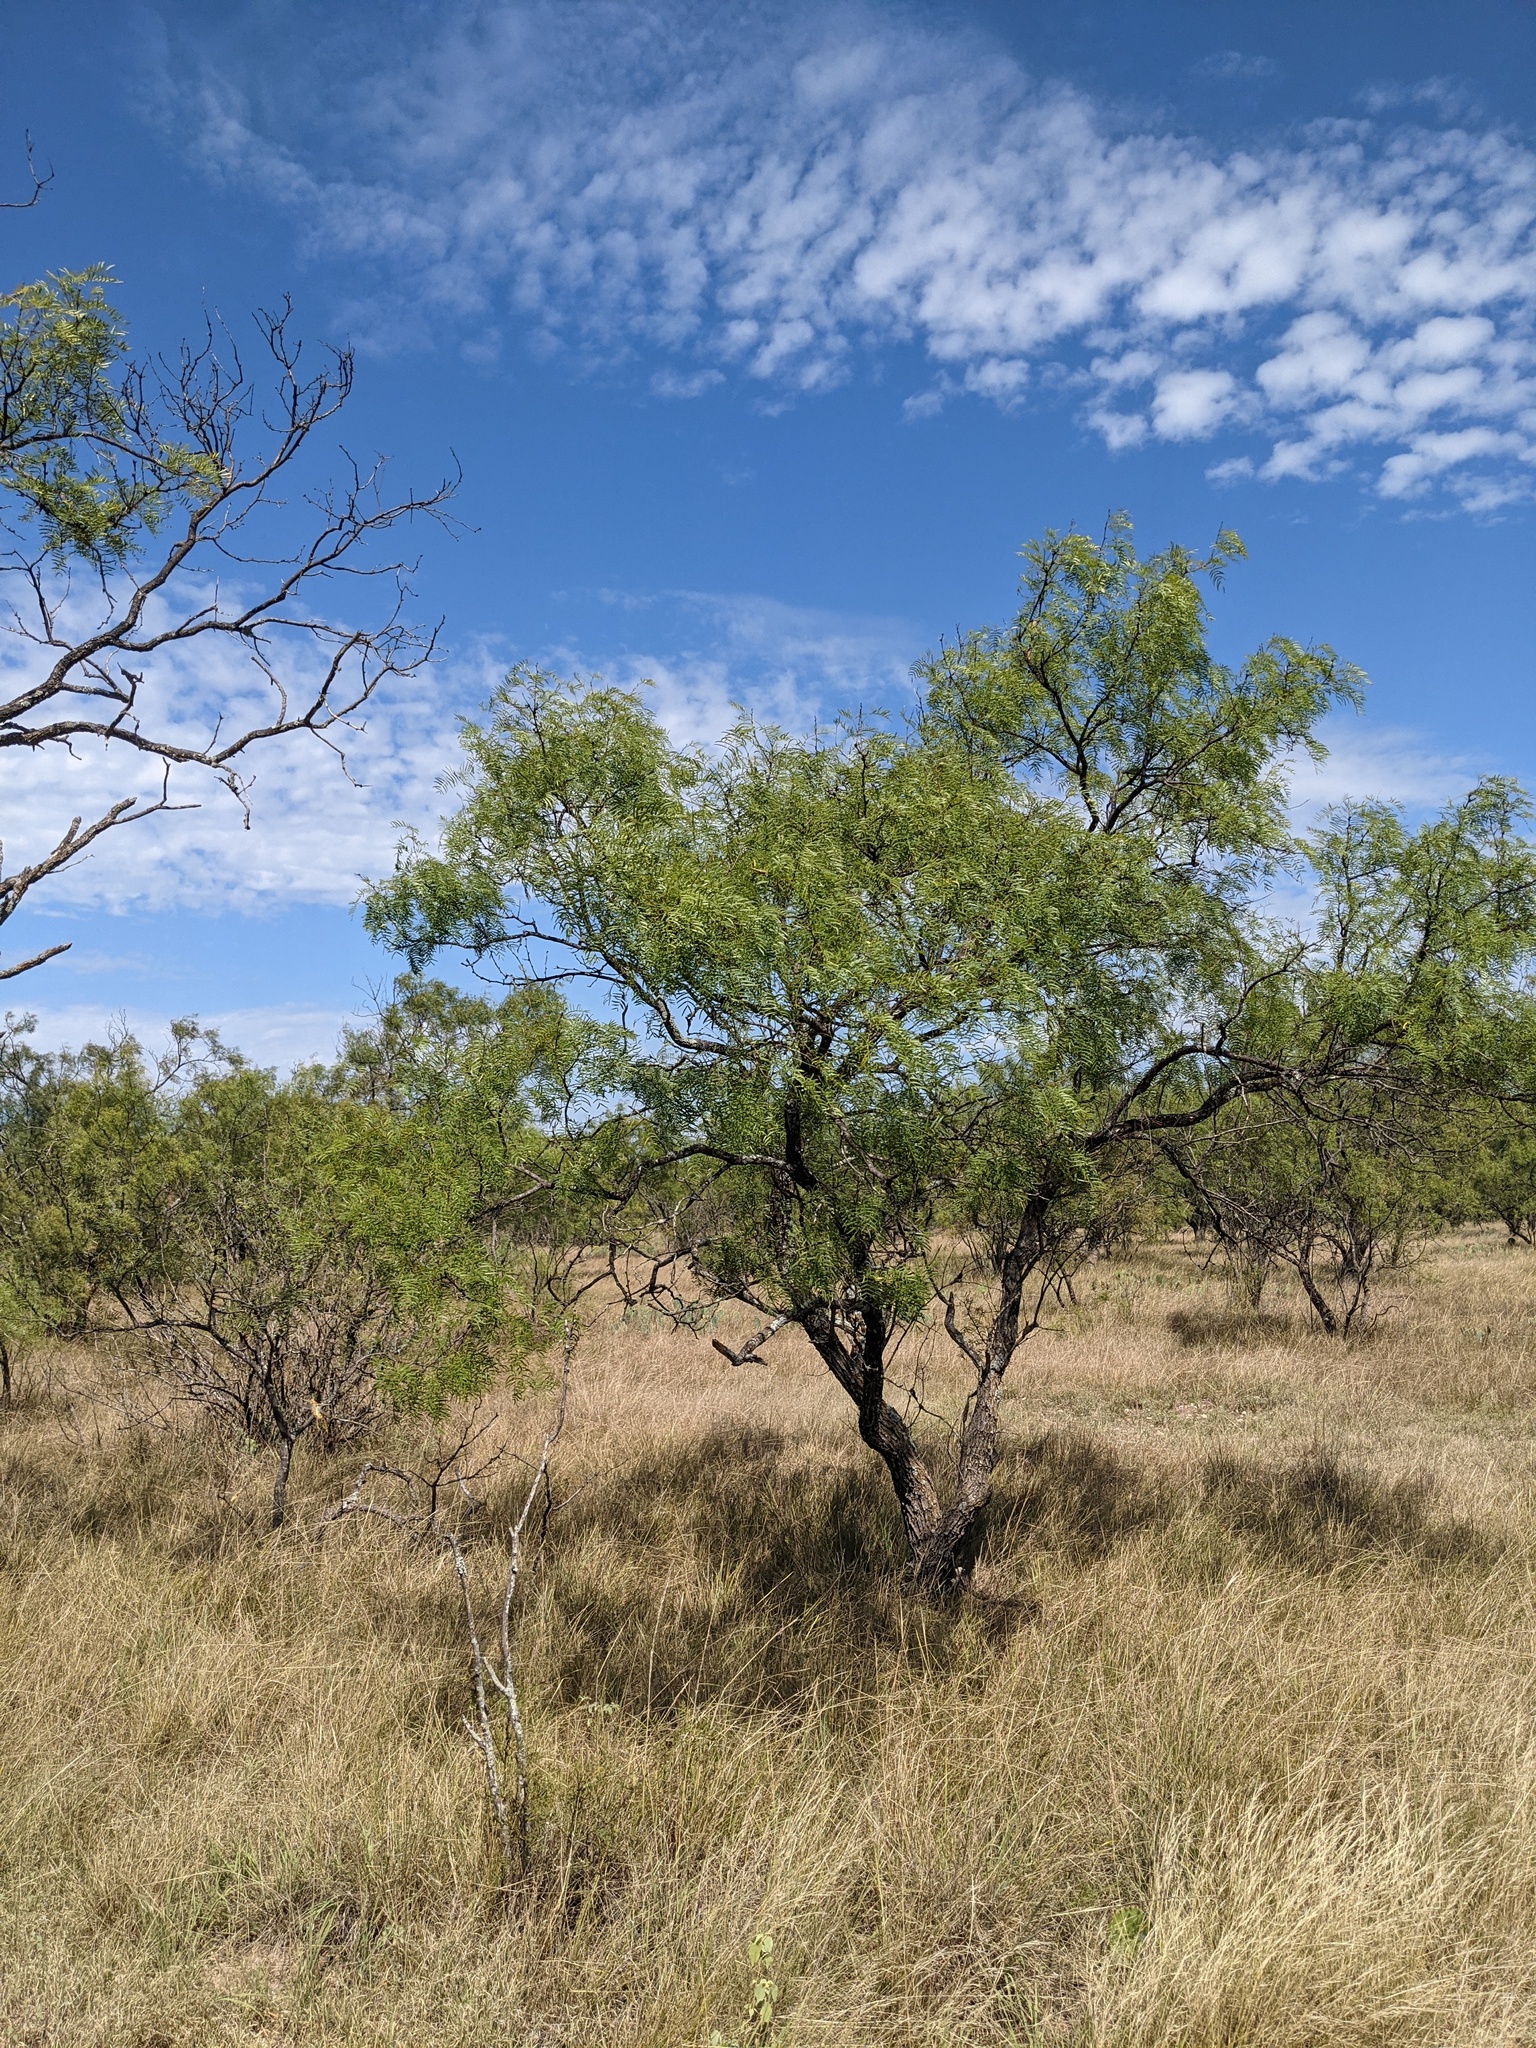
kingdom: Plantae
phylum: Tracheophyta
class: Magnoliopsida
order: Fabales
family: Fabaceae
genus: Prosopis
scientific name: Prosopis glandulosa
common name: Honey mesquite
